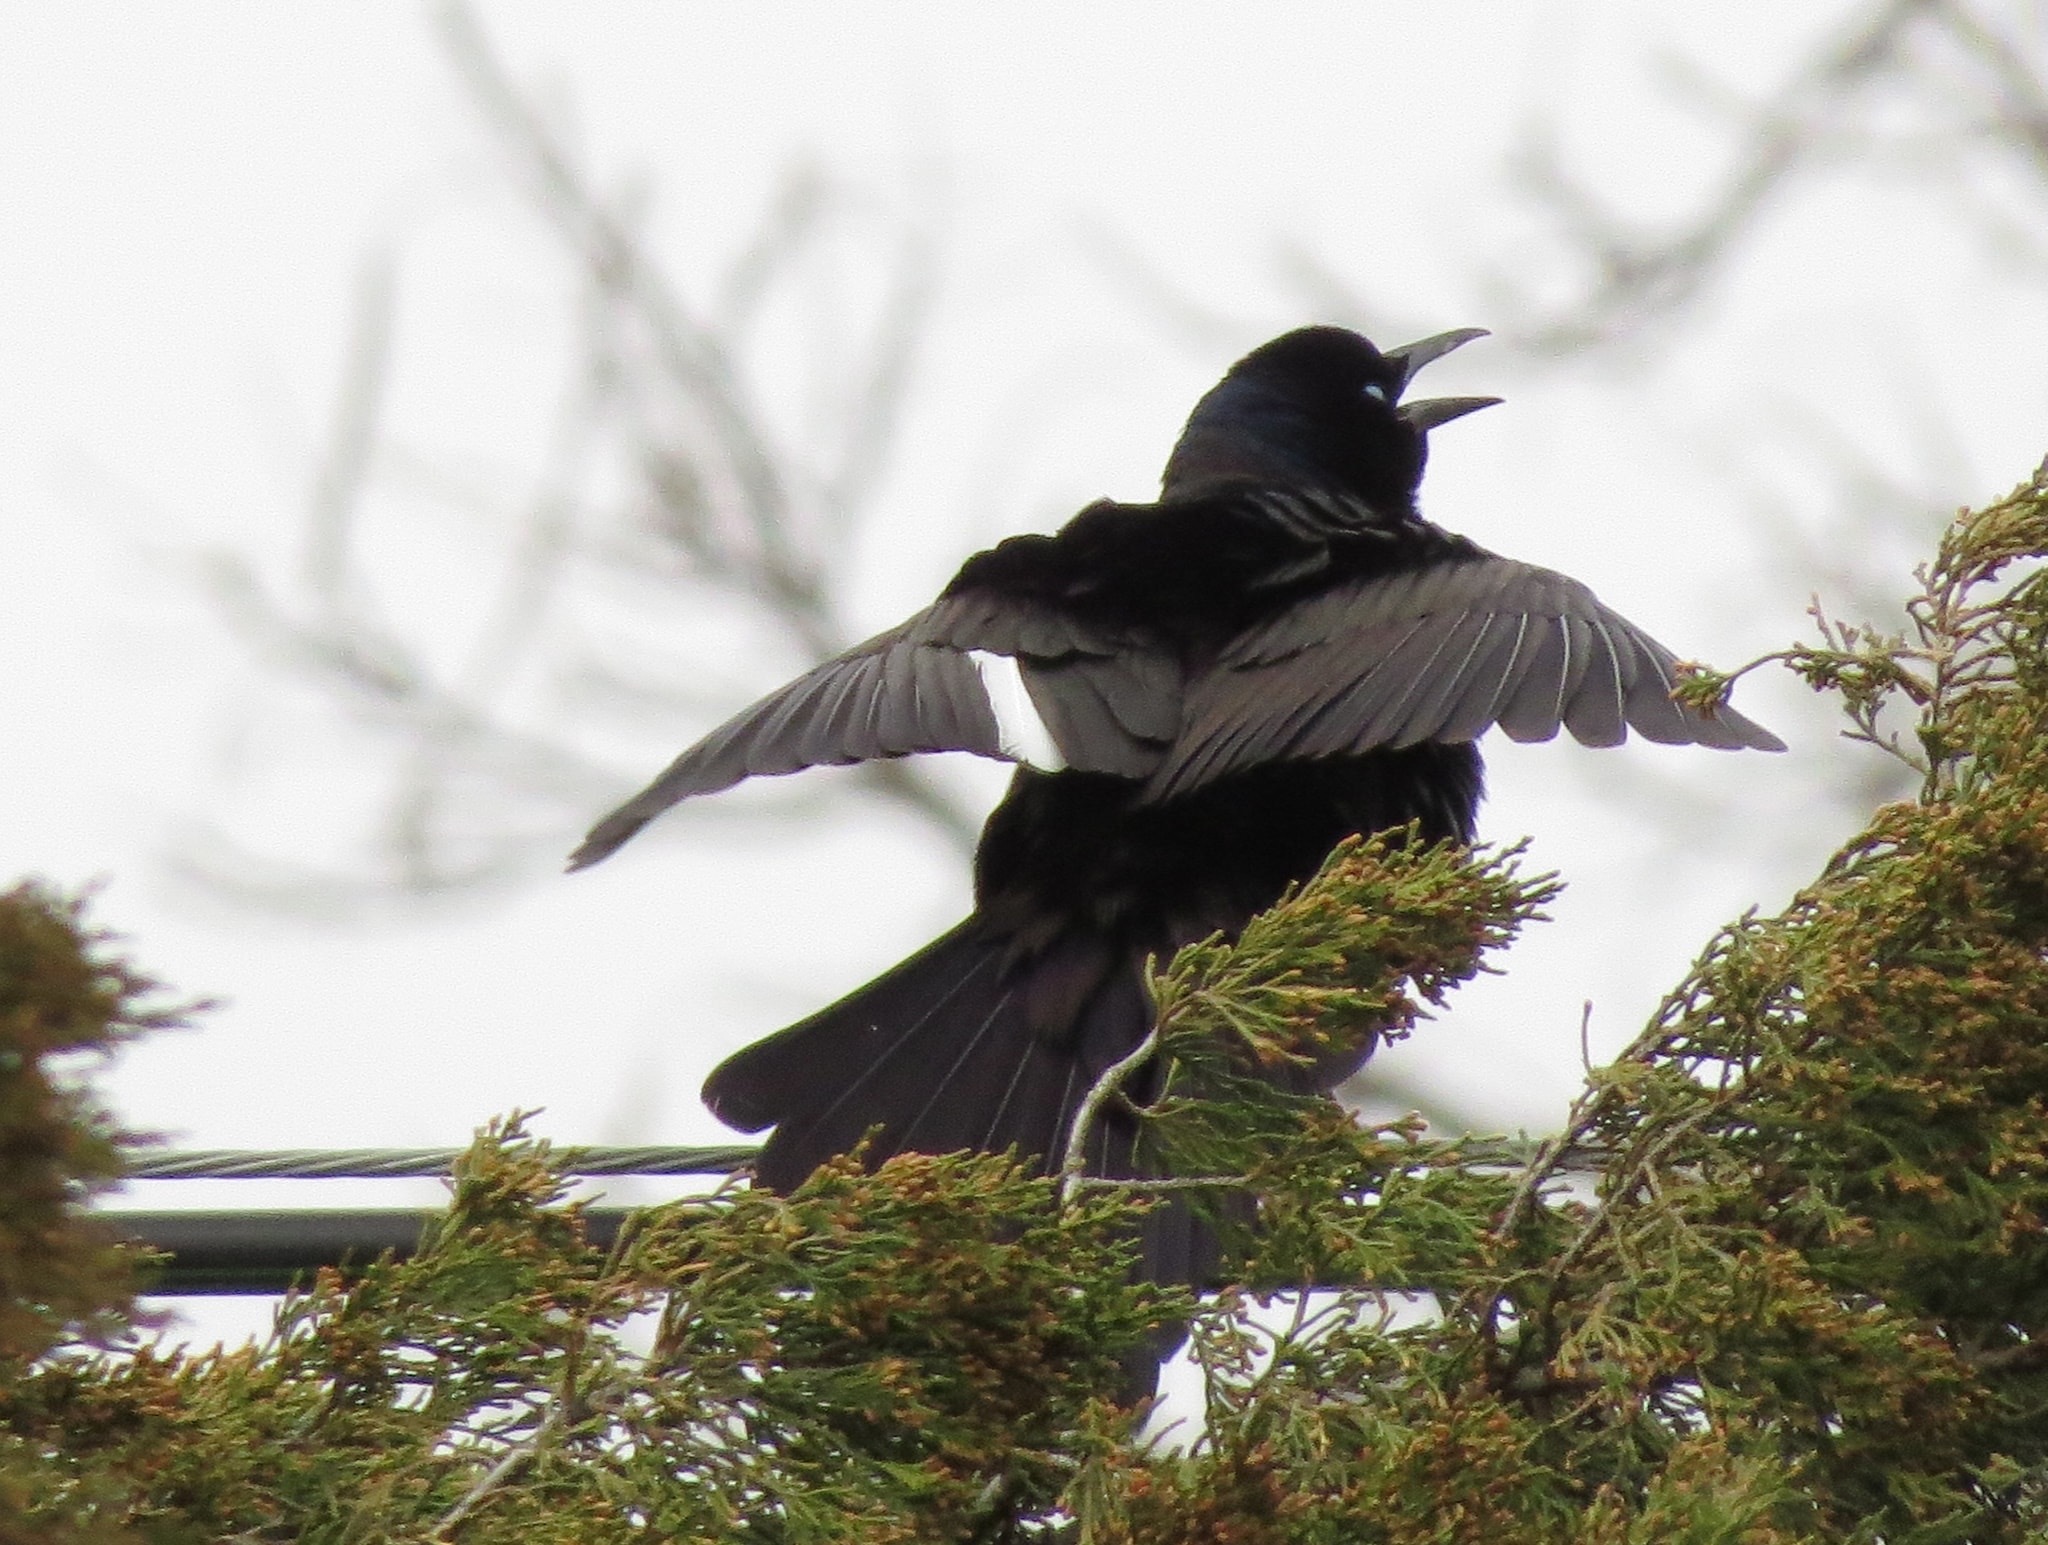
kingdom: Animalia
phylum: Chordata
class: Aves
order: Passeriformes
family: Icteridae
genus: Quiscalus
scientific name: Quiscalus quiscula
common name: Common grackle
